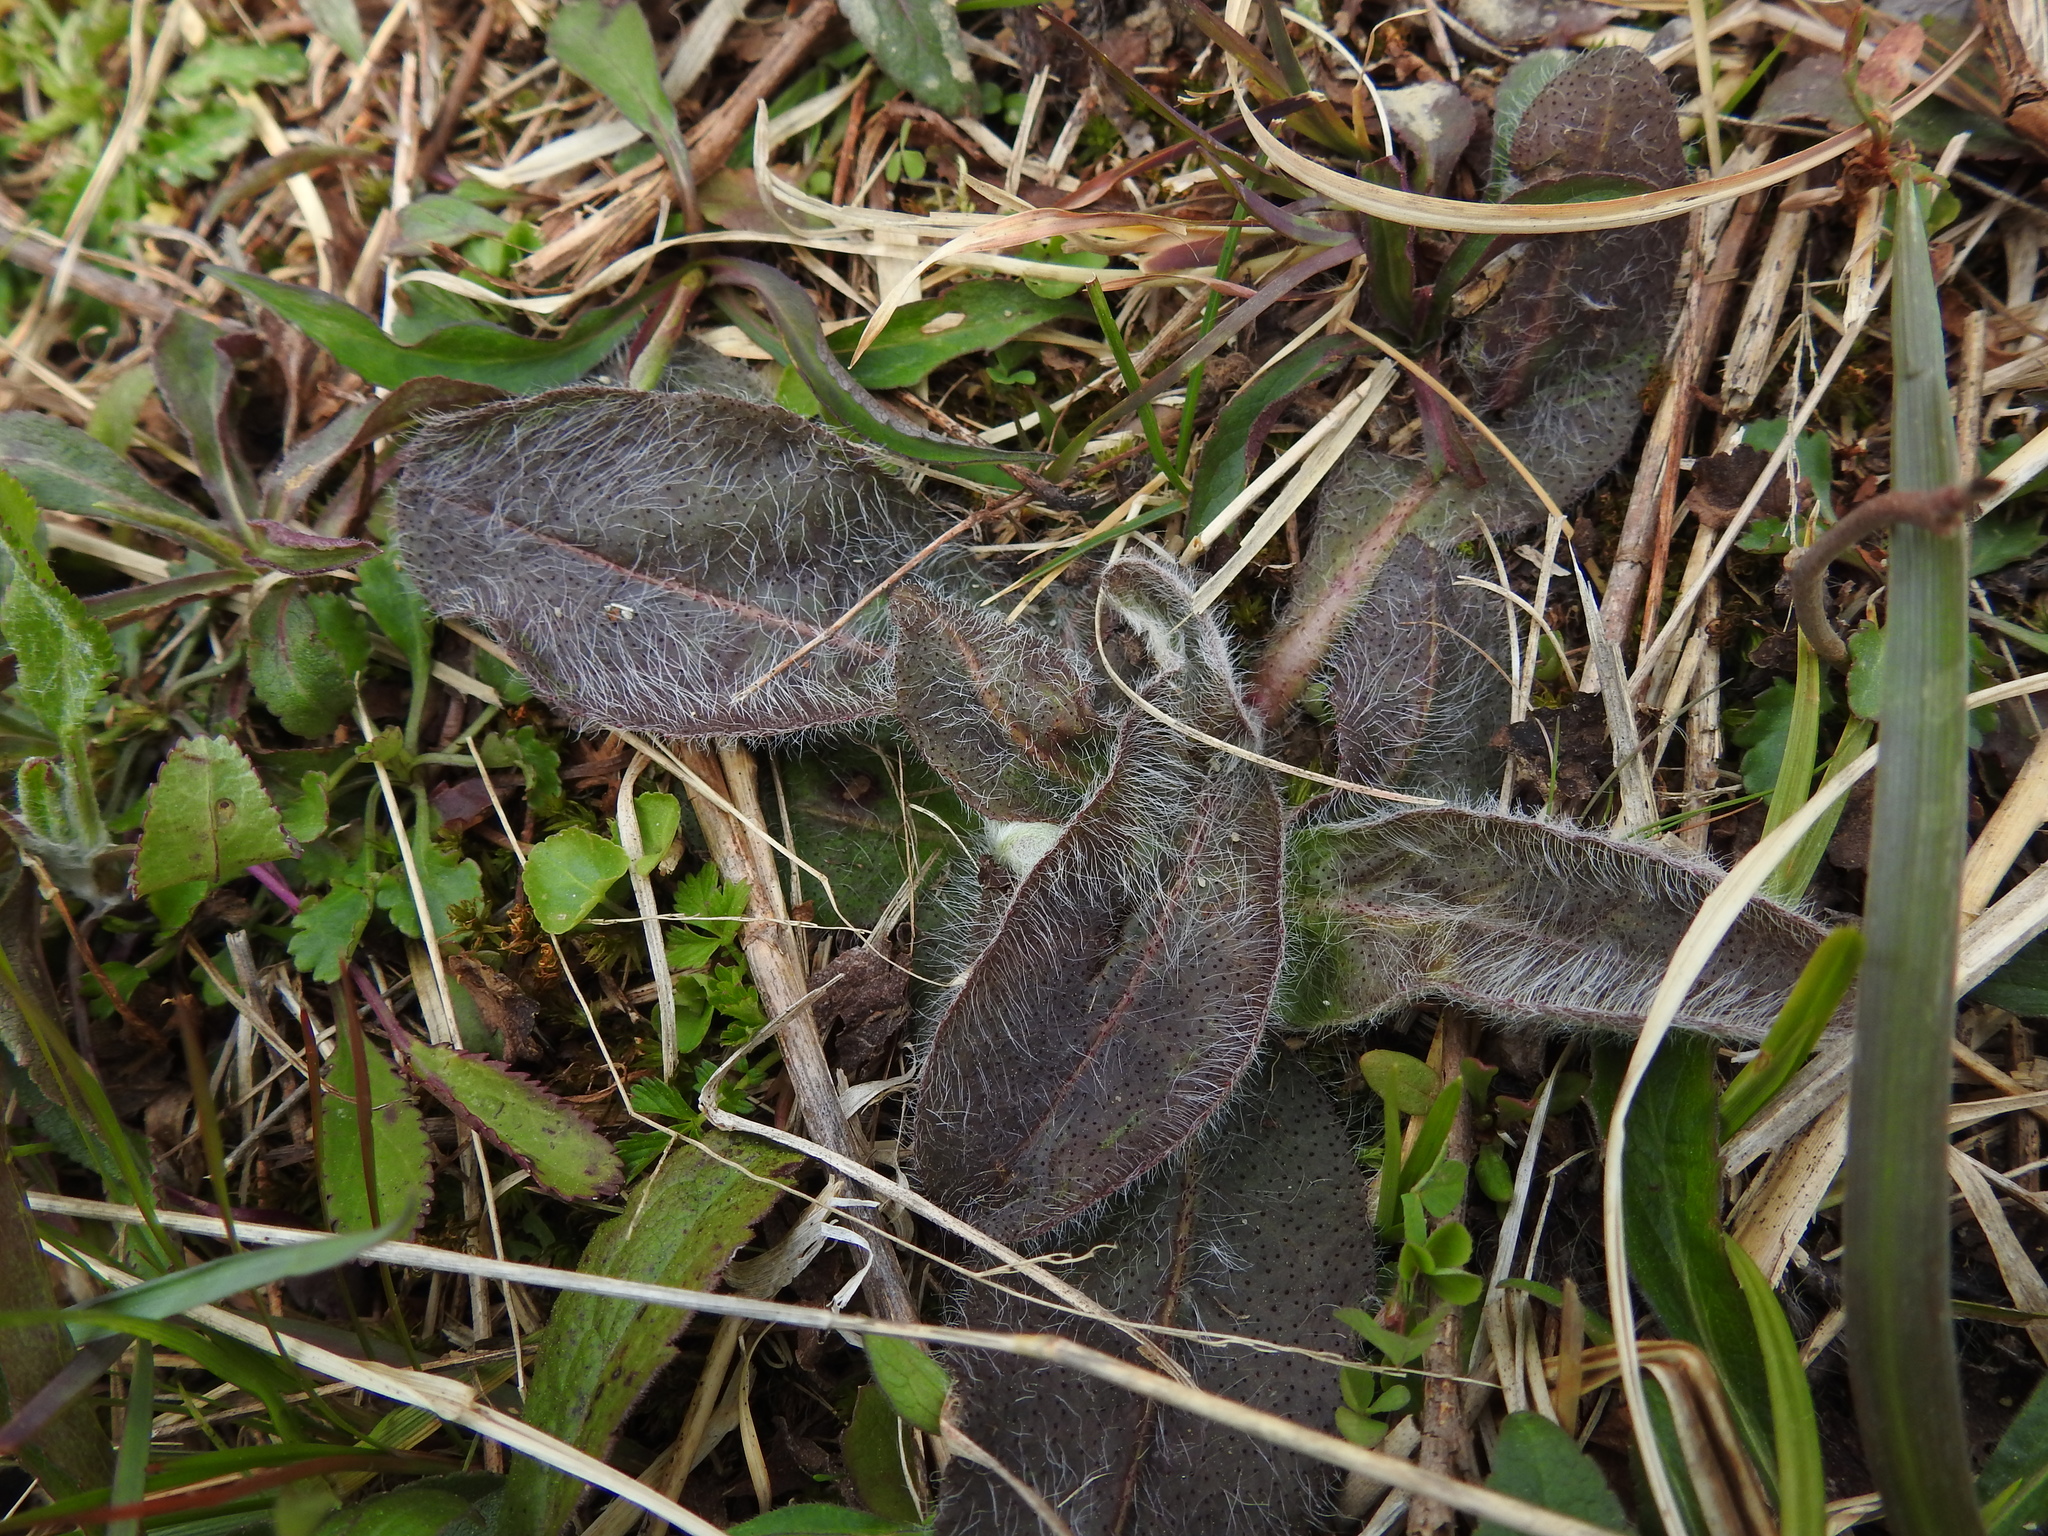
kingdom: Plantae
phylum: Tracheophyta
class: Magnoliopsida
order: Asterales
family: Asteraceae
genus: Hieracium
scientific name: Hieracium gronovii
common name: Beaked hawkweed
